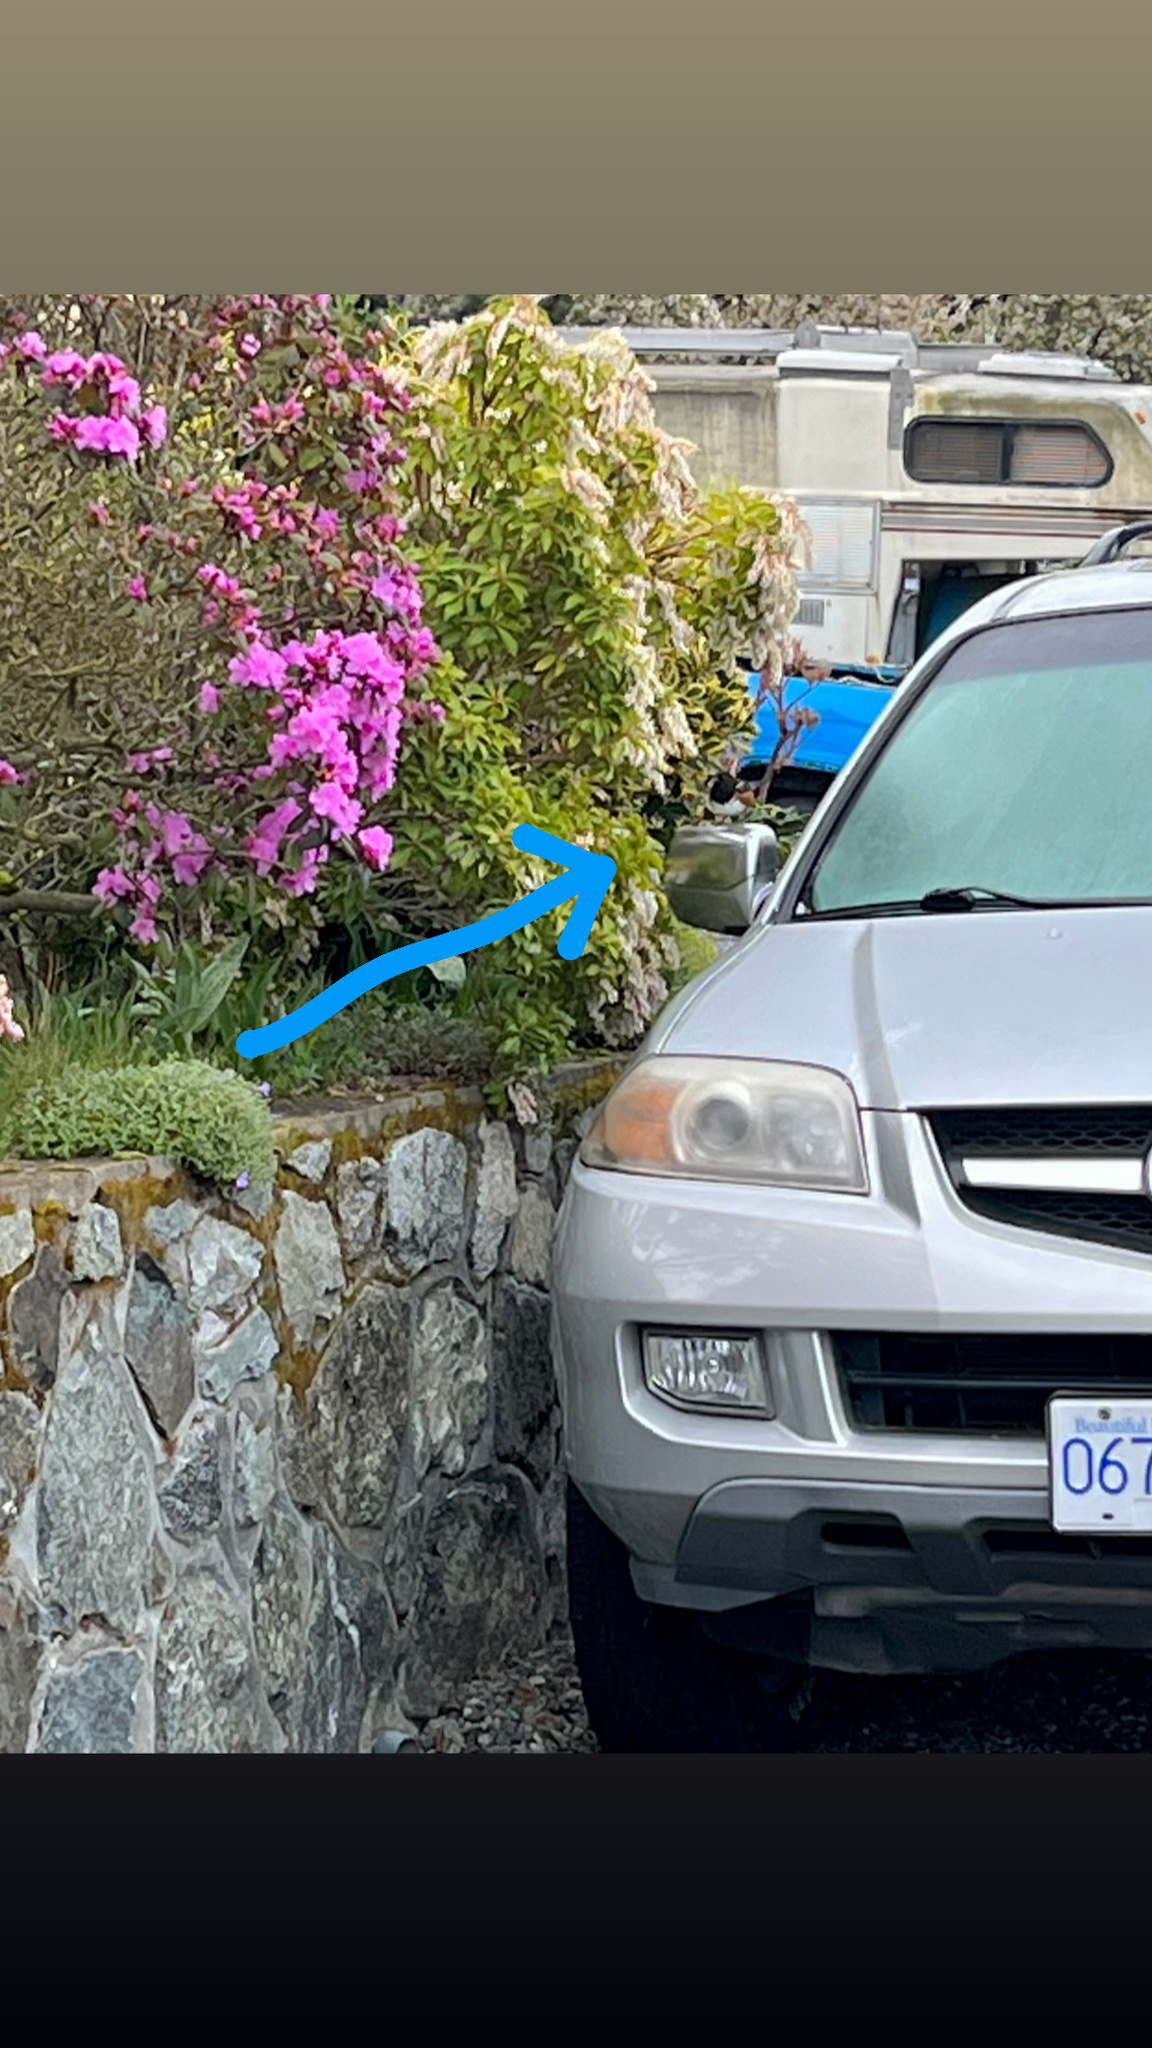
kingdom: Animalia
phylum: Chordata
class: Aves
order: Passeriformes
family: Passerellidae
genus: Pipilo
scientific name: Pipilo maculatus
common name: Spotted towhee
